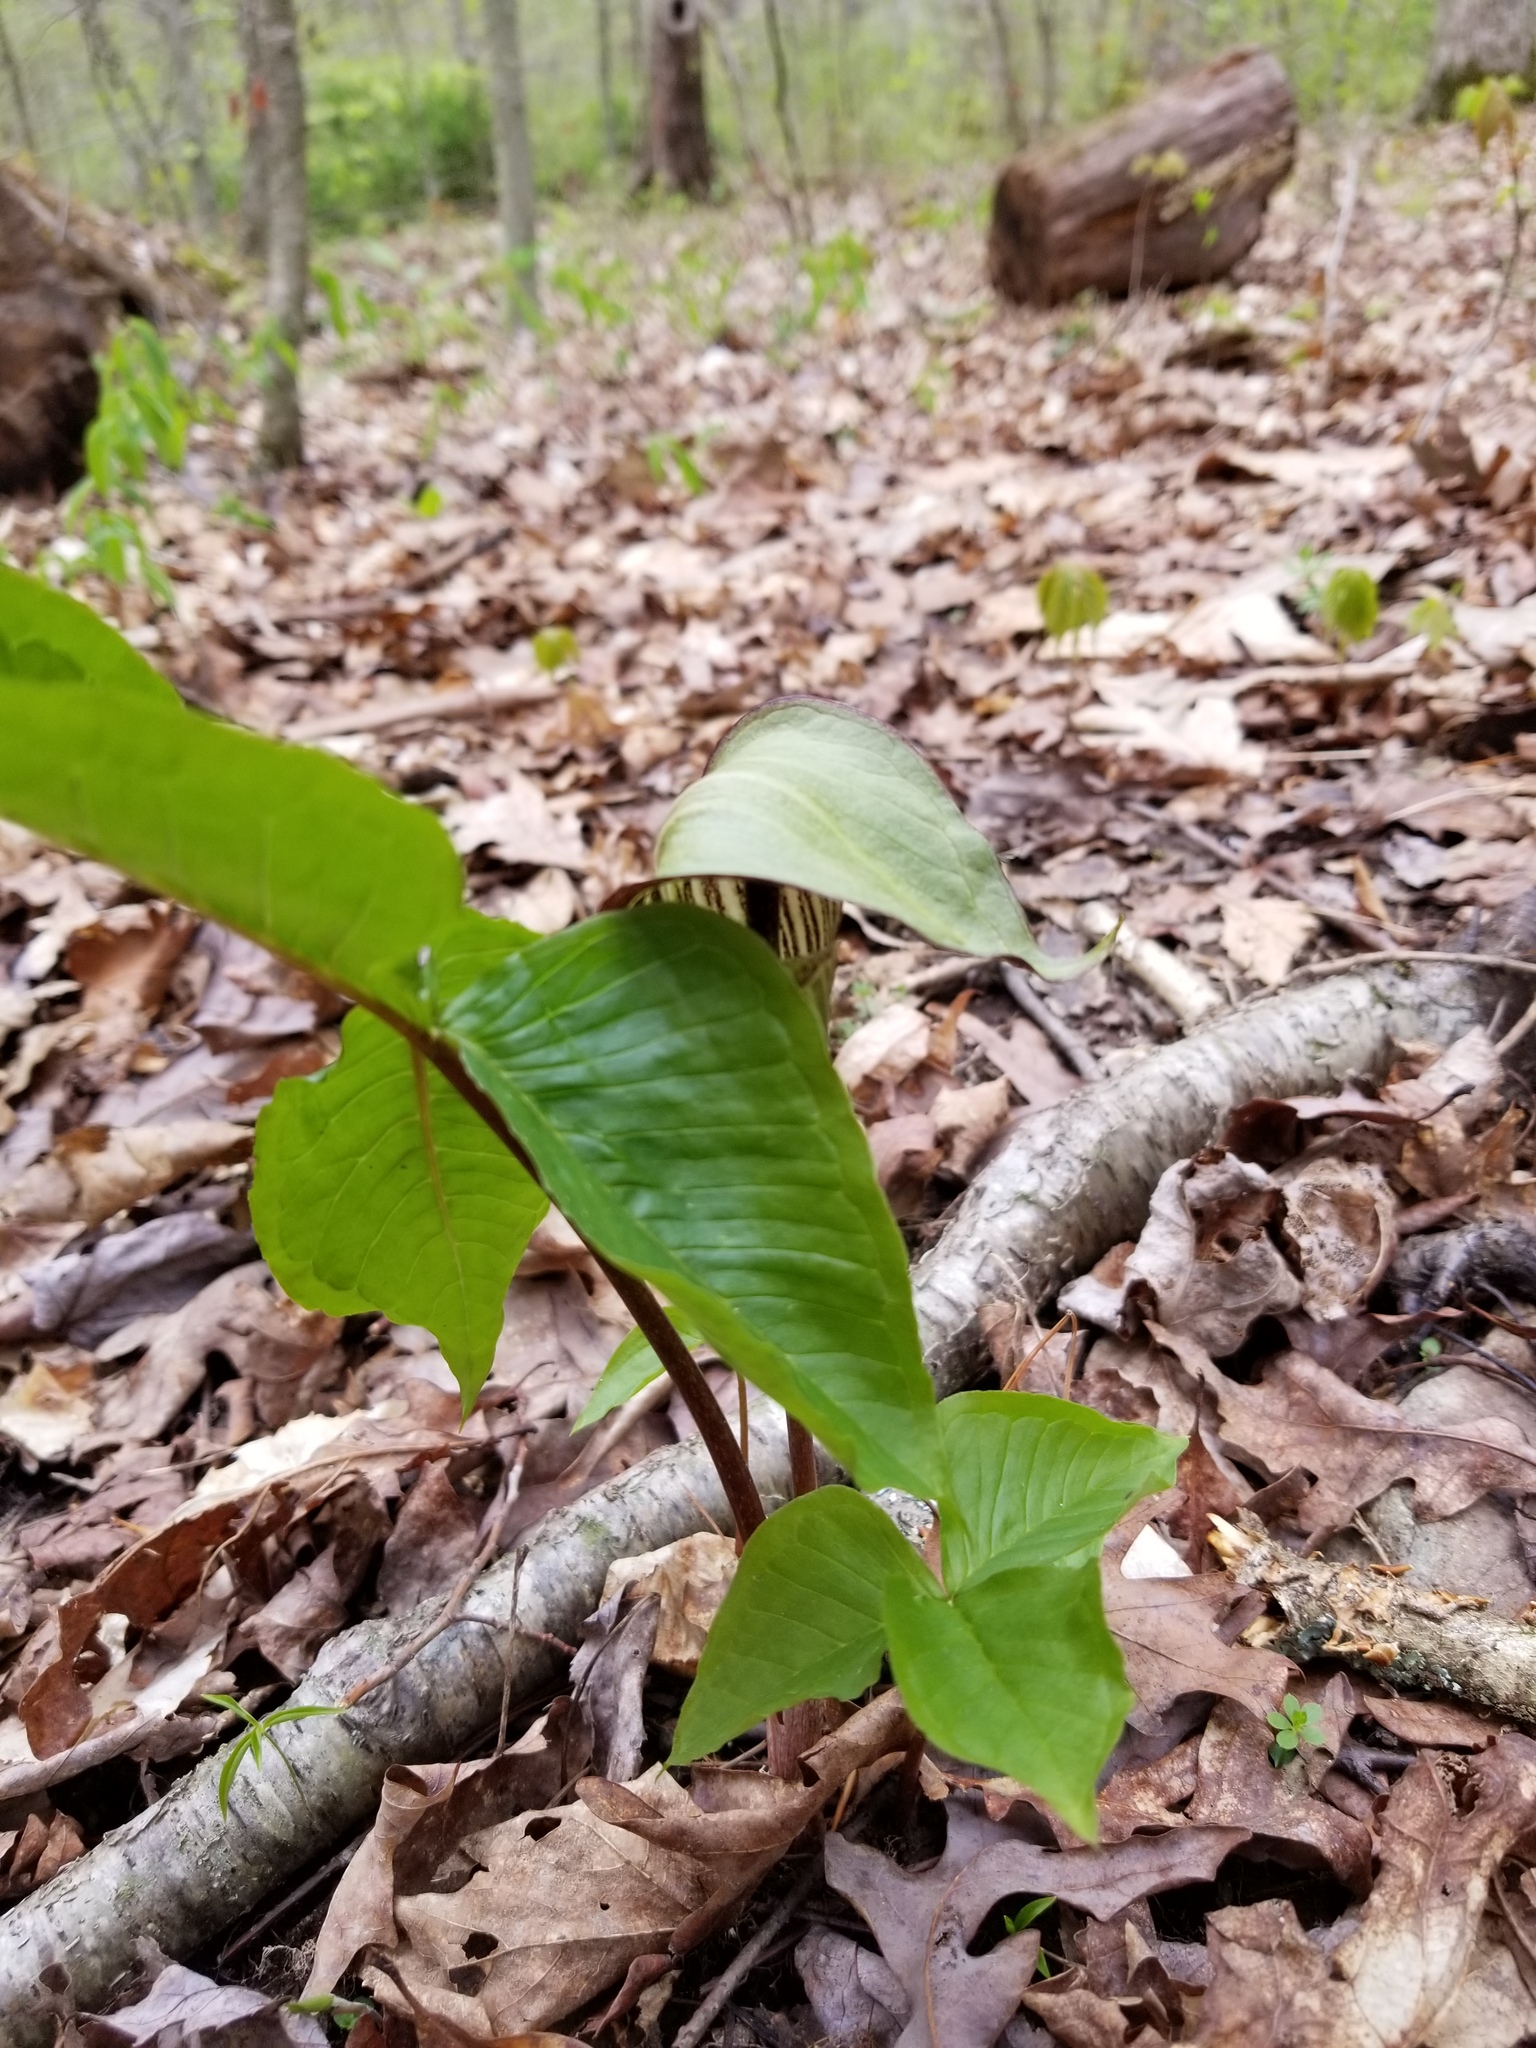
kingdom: Plantae
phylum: Tracheophyta
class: Liliopsida
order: Alismatales
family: Araceae
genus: Arisaema
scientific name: Arisaema triphyllum
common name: Jack-in-the-pulpit
